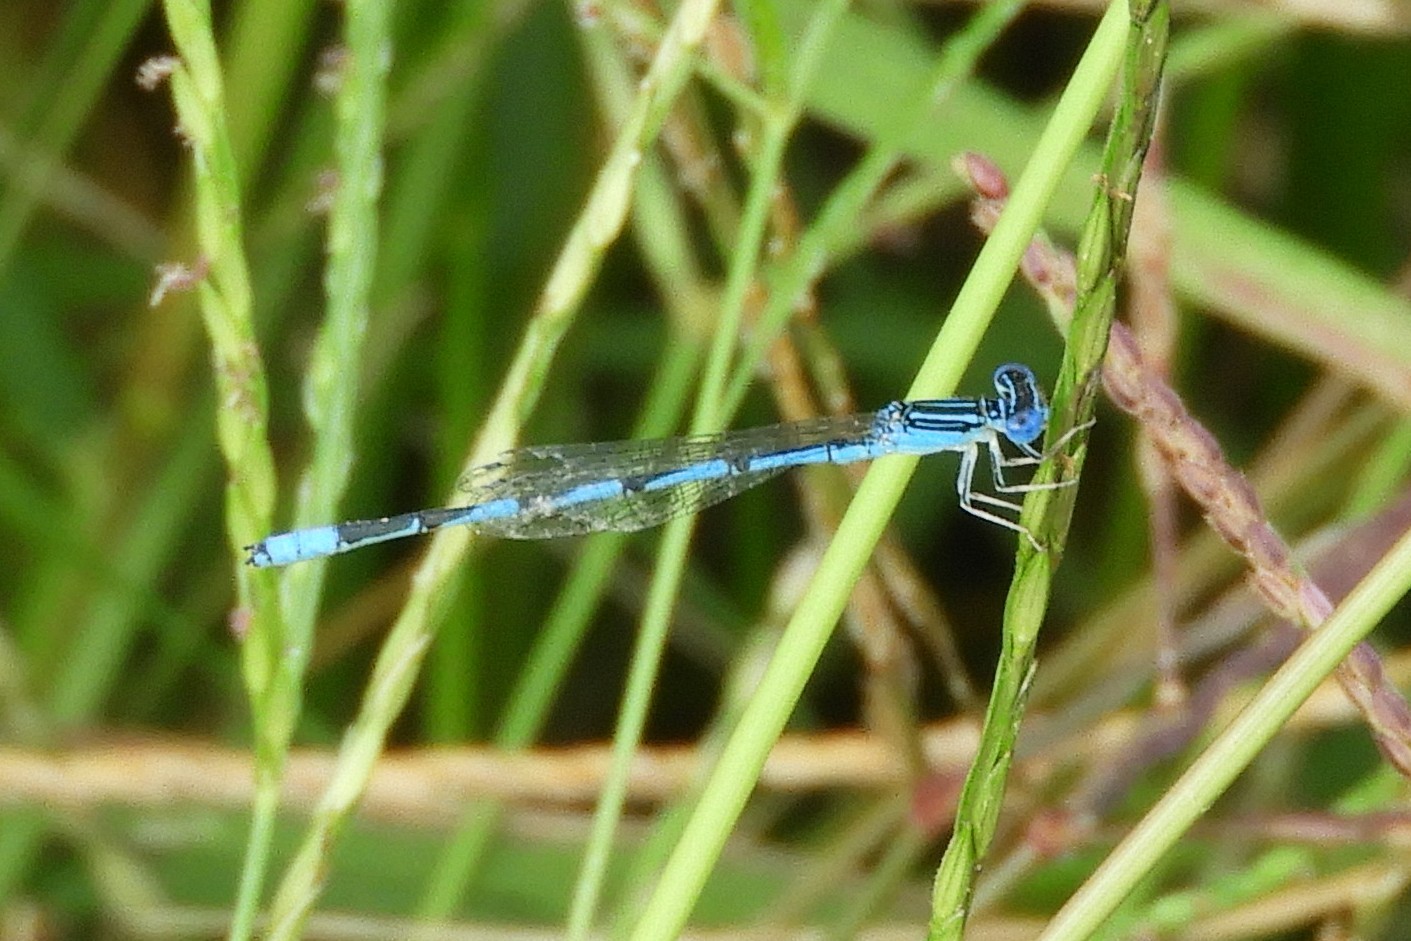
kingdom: Animalia
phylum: Arthropoda
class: Insecta
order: Odonata
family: Coenagrionidae
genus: Enallagma
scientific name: Enallagma basidens
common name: Double-striped bluet
